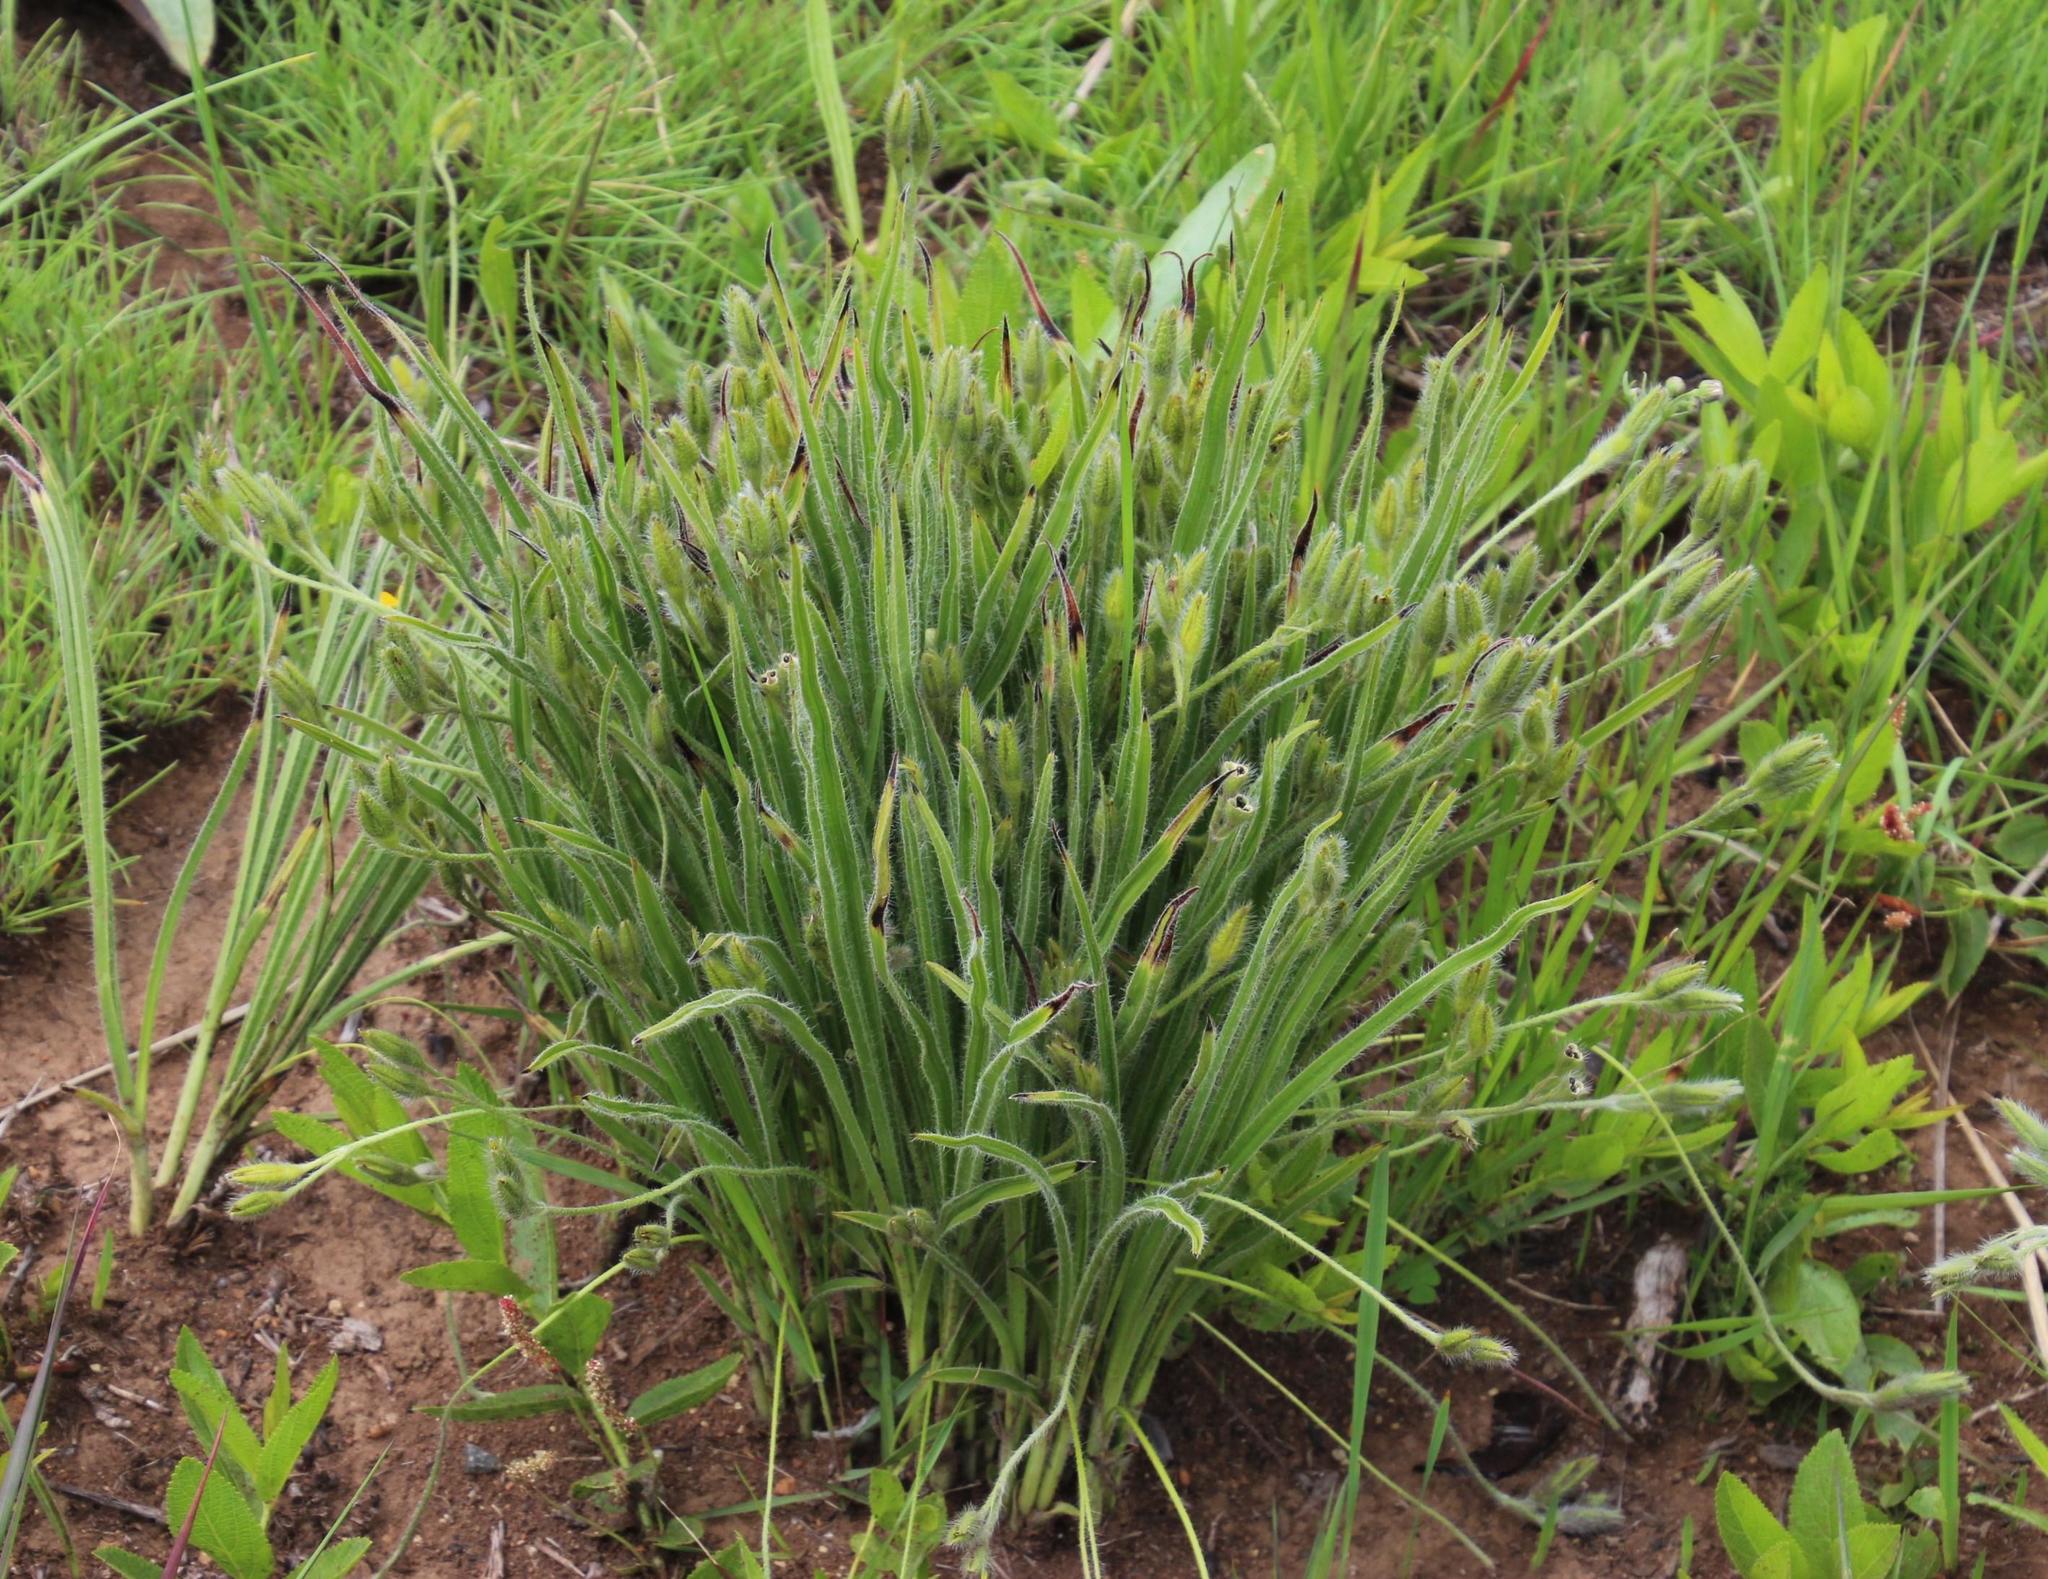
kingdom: Plantae
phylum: Tracheophyta
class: Liliopsida
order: Asparagales
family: Hypoxidaceae
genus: Hypoxis
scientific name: Hypoxis rigidula
